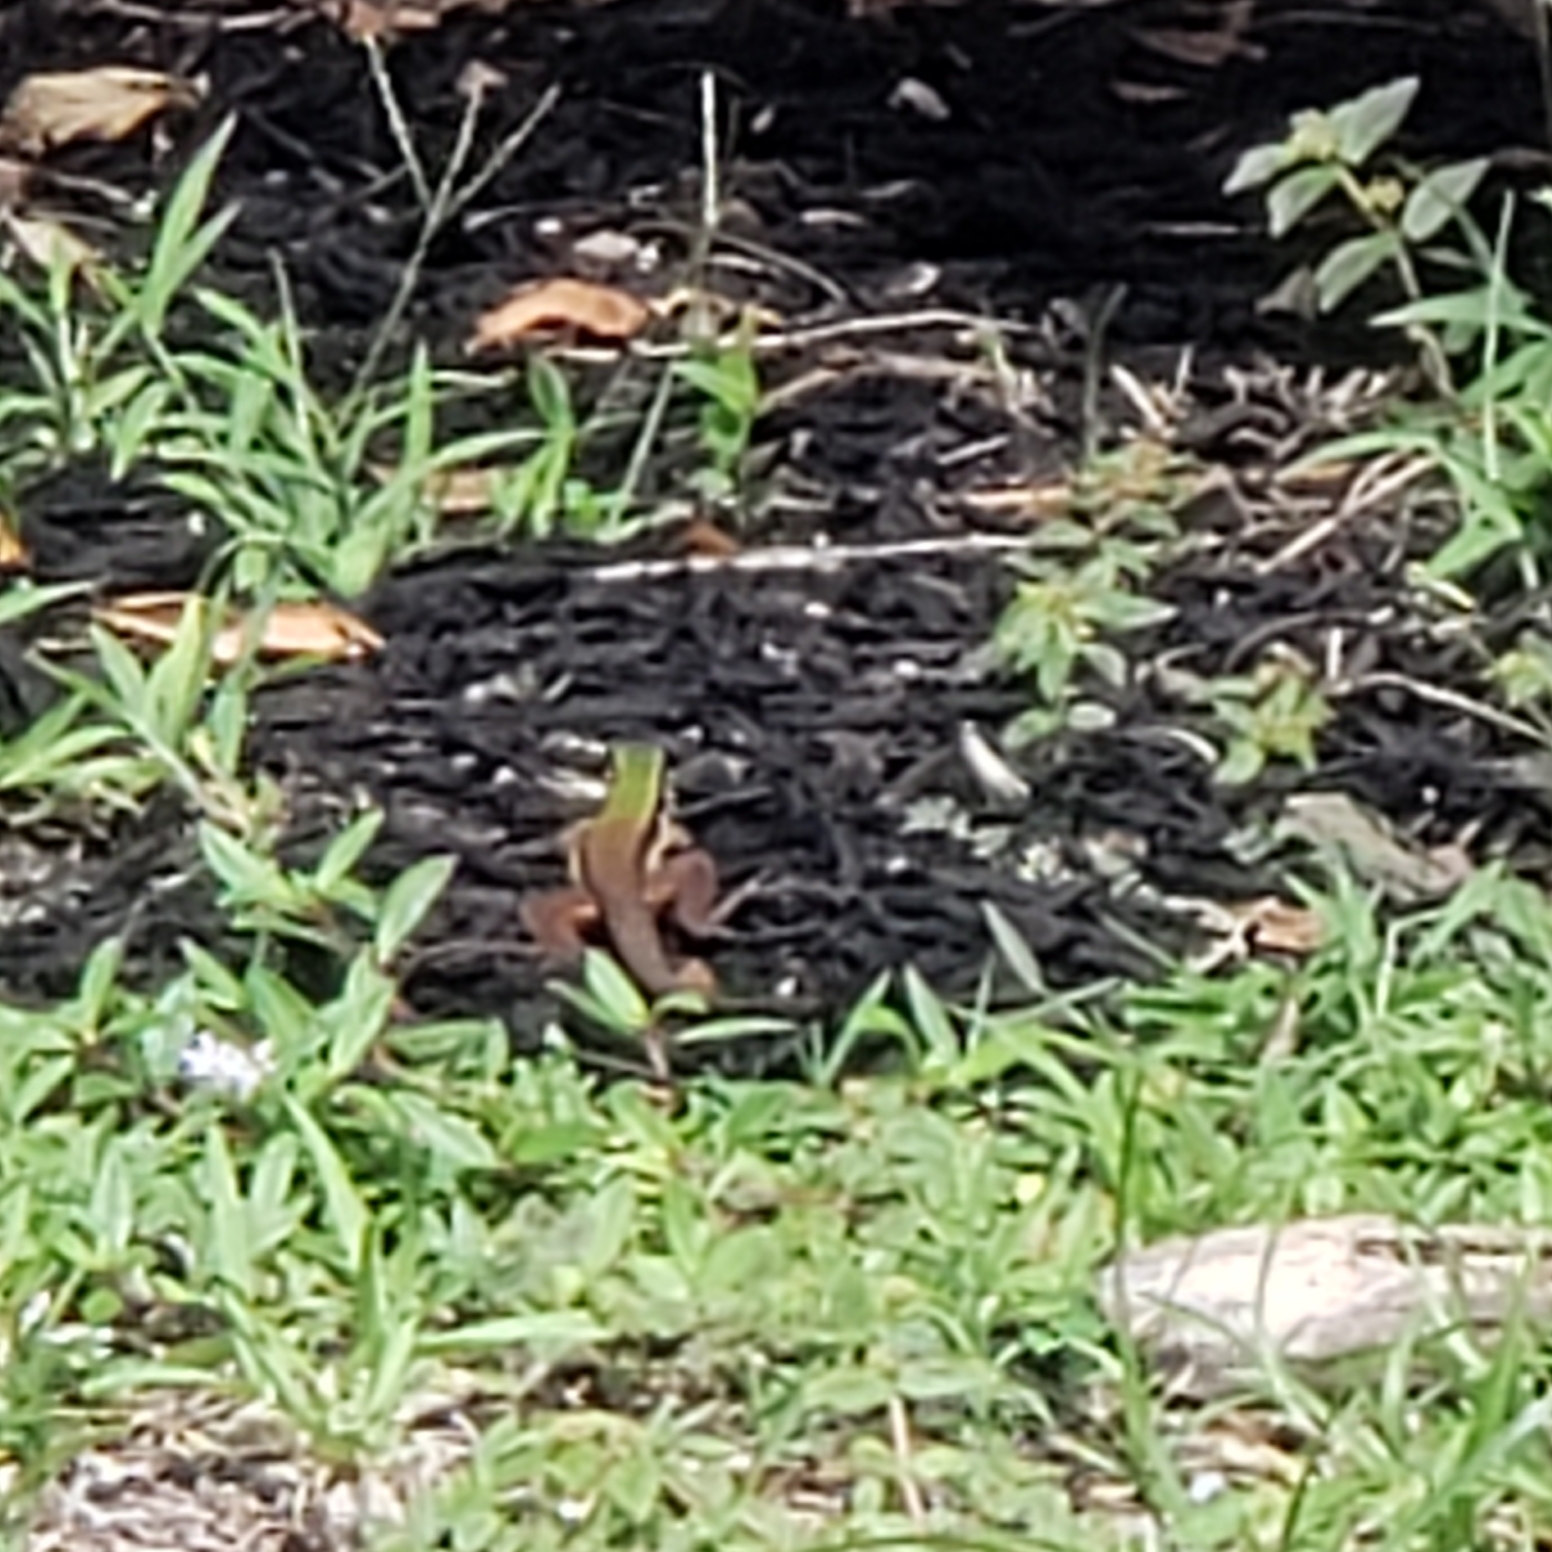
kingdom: Animalia
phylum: Chordata
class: Squamata
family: Teiidae
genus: Ameiva
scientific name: Ameiva ameiva
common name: Giant ameiva
